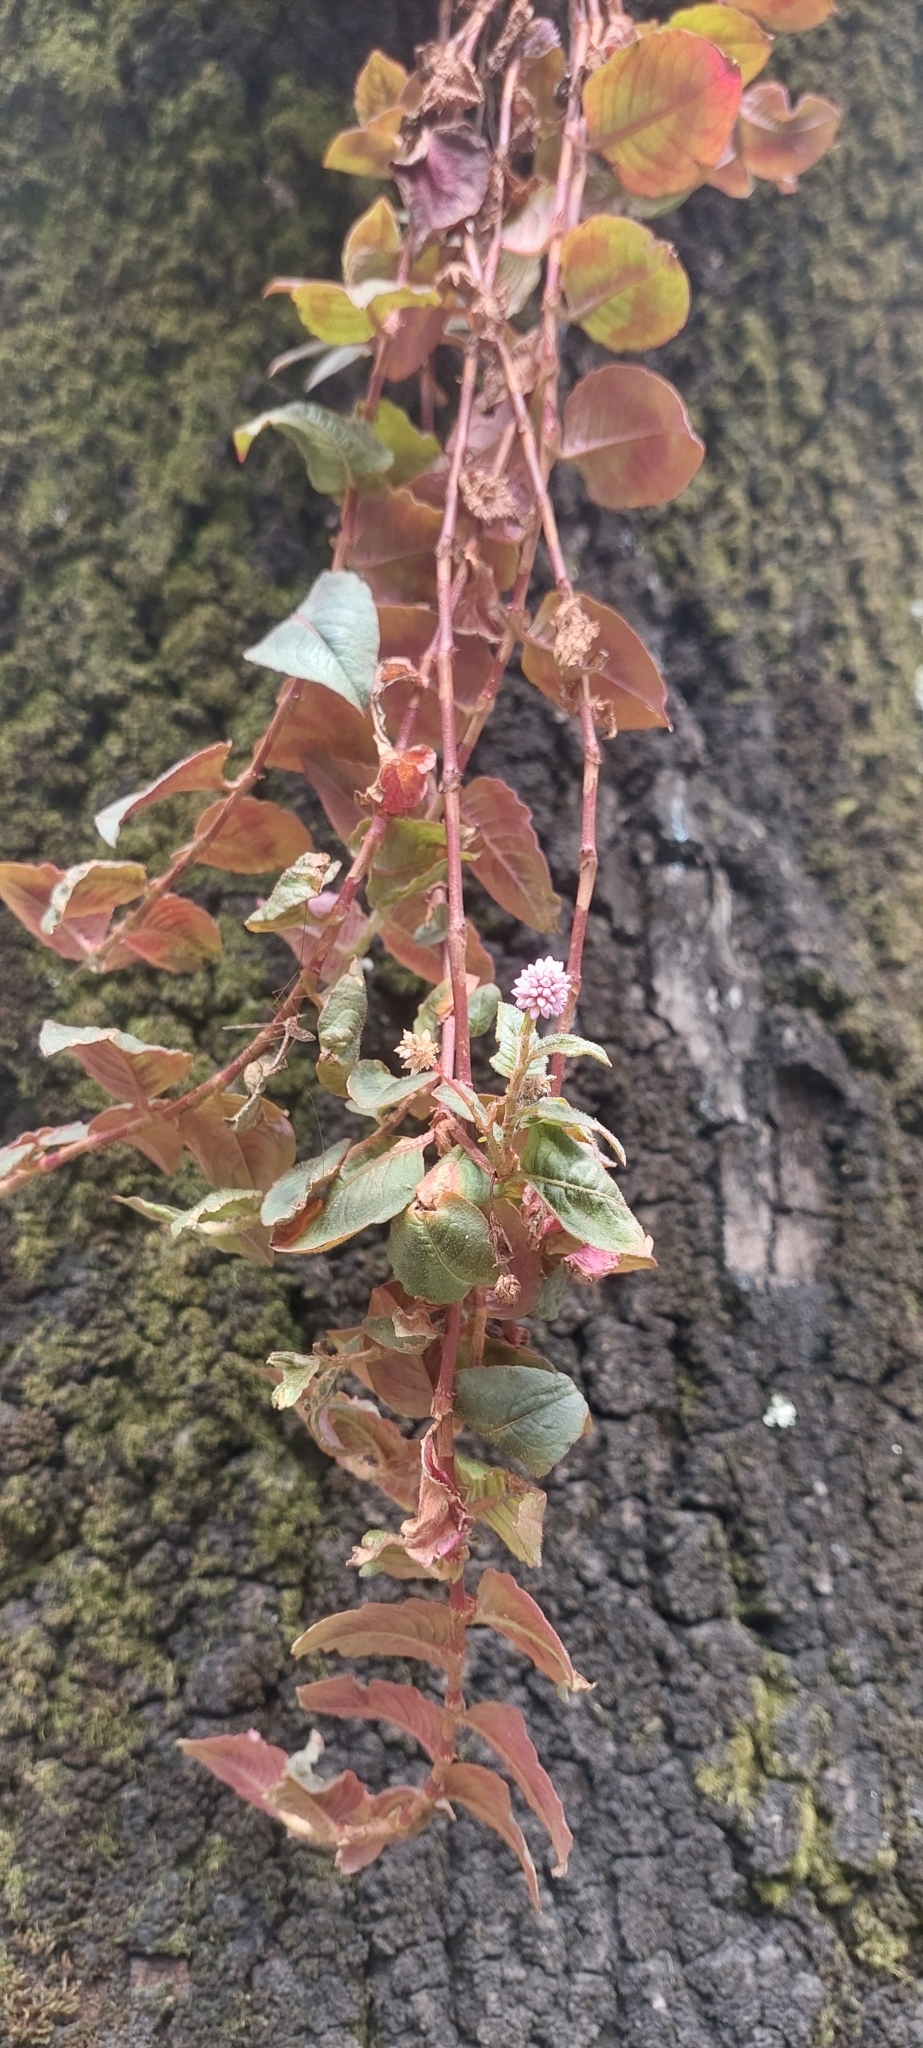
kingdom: Plantae
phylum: Tracheophyta
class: Magnoliopsida
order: Caryophyllales
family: Polygonaceae
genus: Persicaria
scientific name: Persicaria capitata
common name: Pinkhead smartweed
